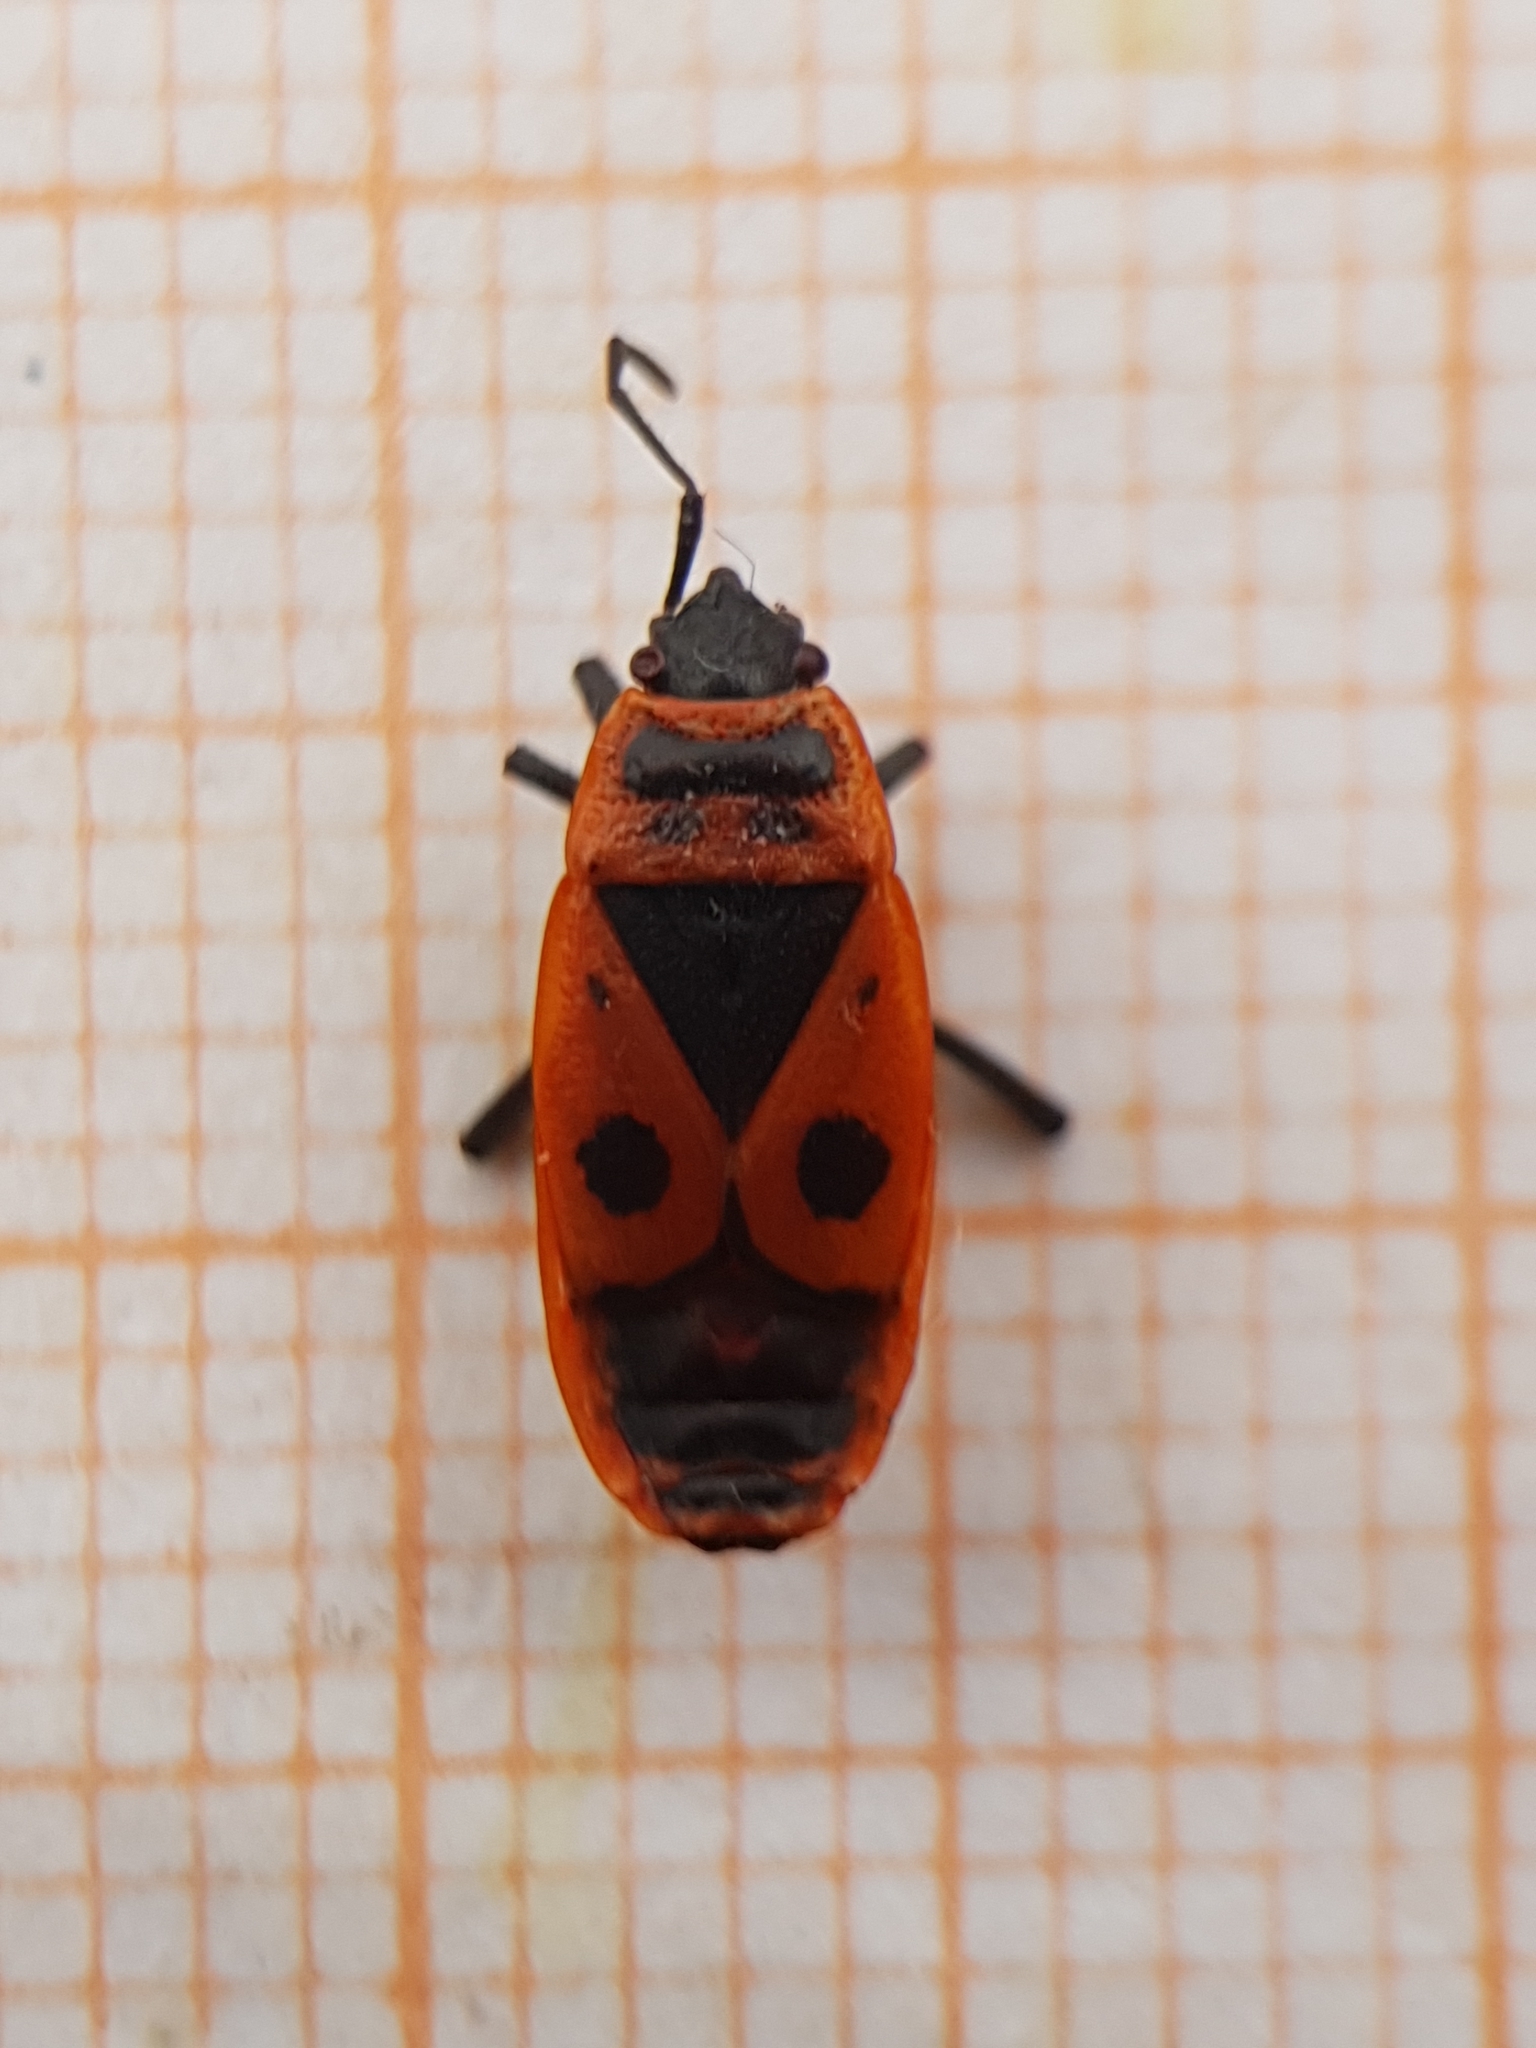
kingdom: Animalia
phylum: Arthropoda
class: Insecta
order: Hemiptera
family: Pyrrhocoridae
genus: Pyrrhocoris
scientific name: Pyrrhocoris apterus
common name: Firebug
